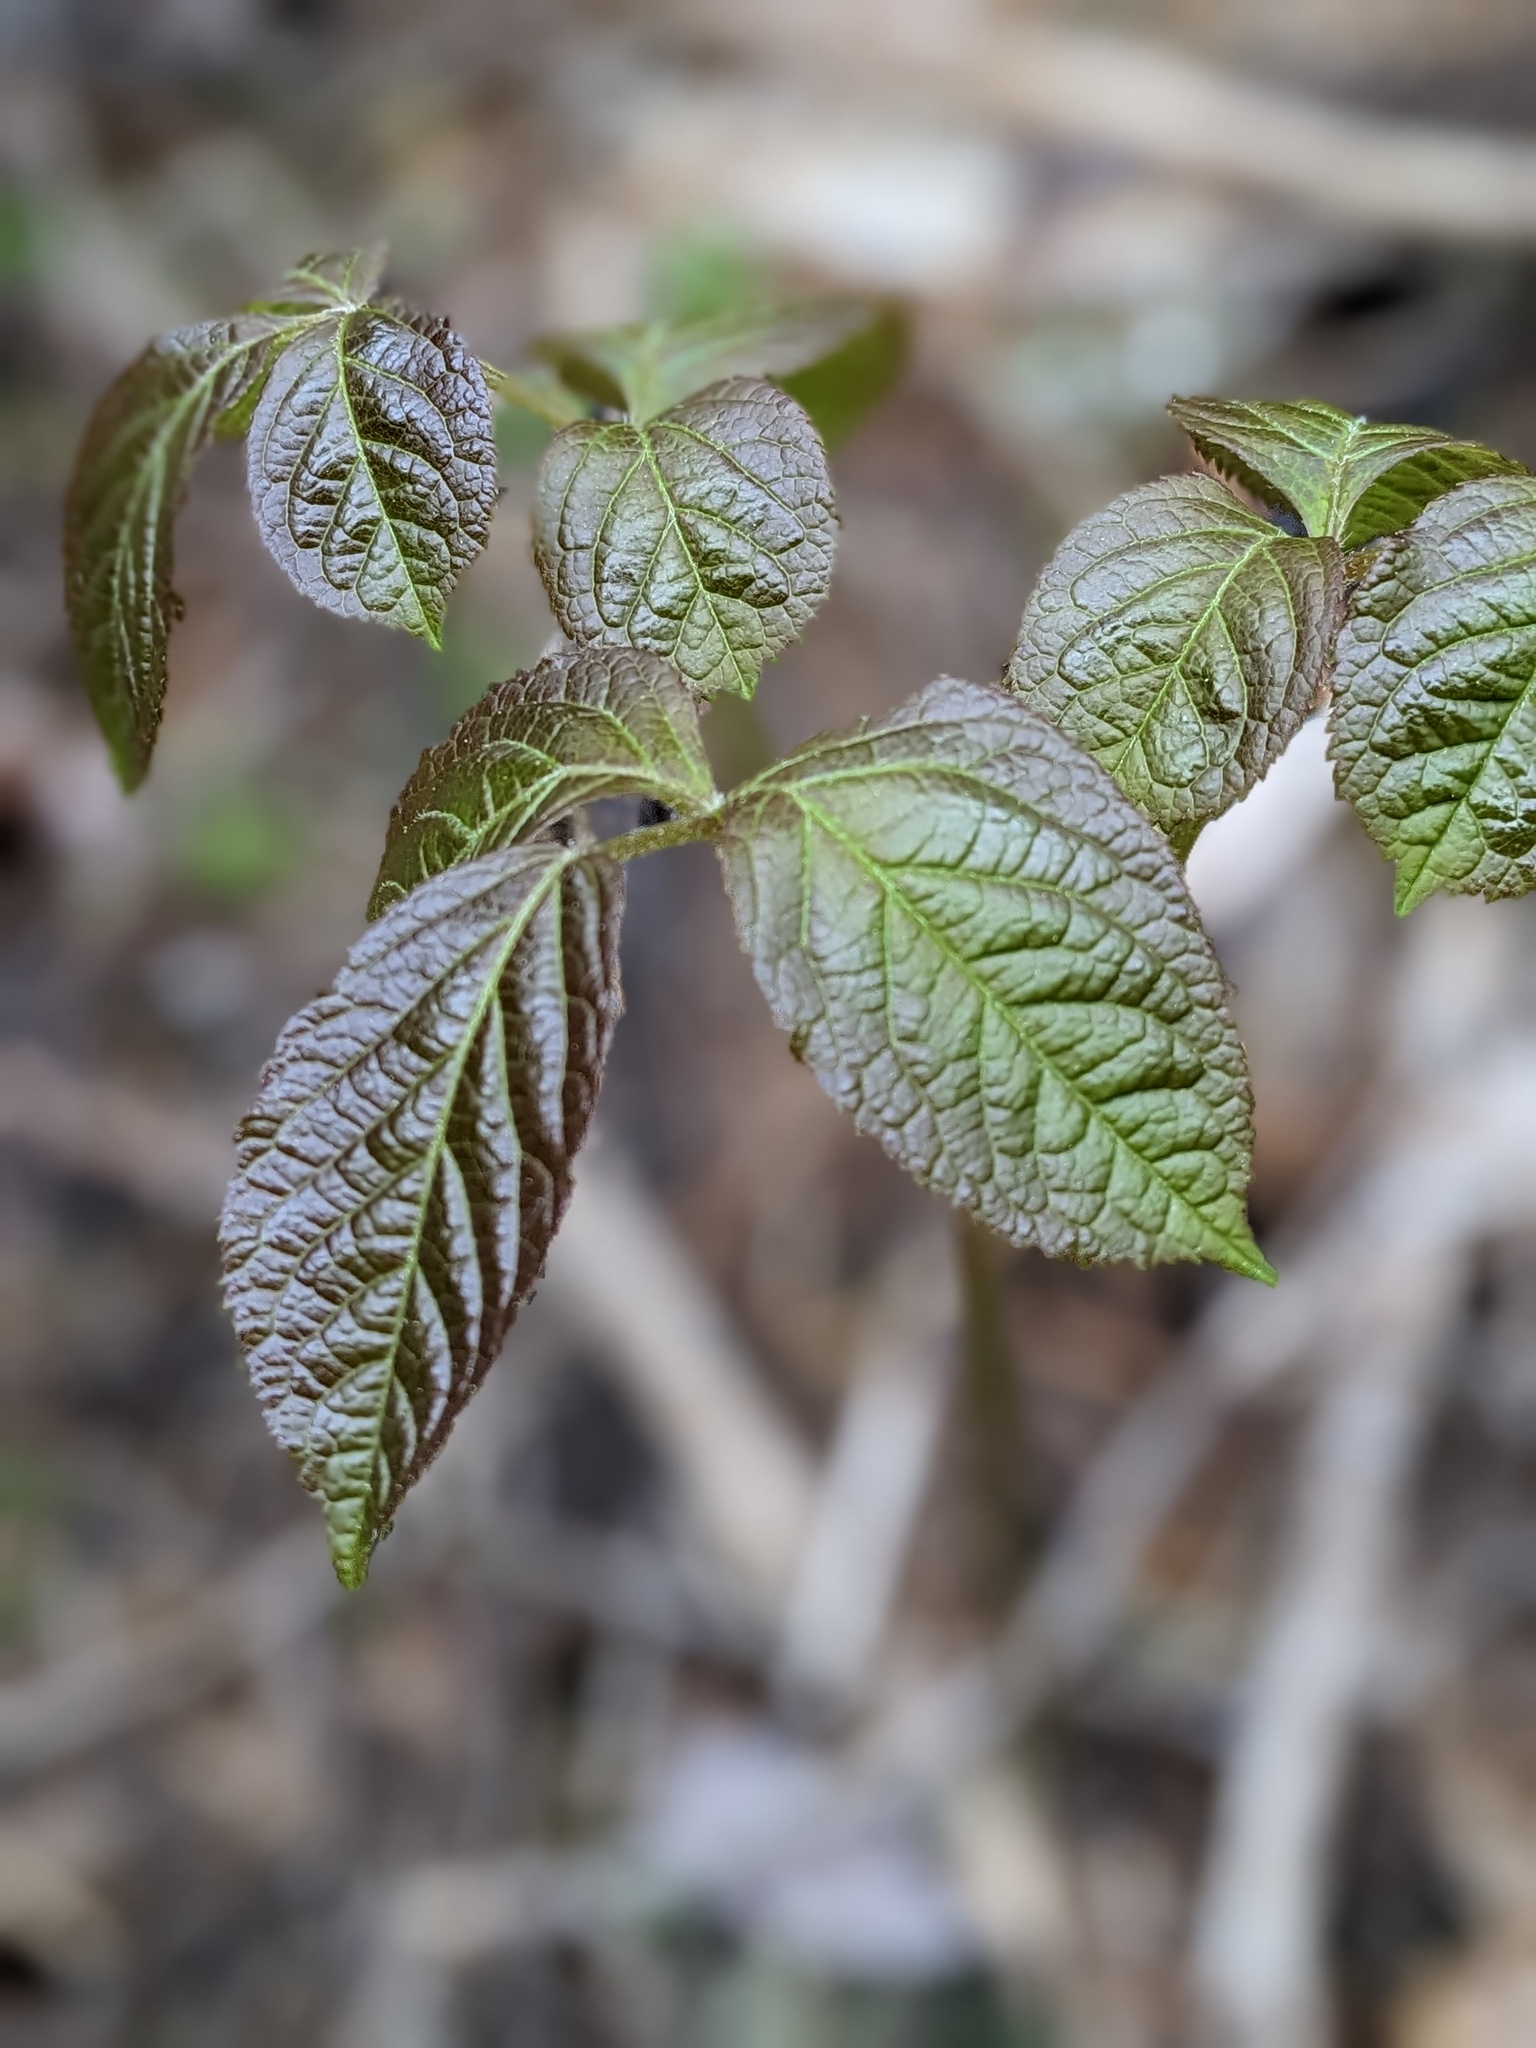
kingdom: Plantae
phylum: Tracheophyta
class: Magnoliopsida
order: Apiales
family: Araliaceae
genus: Aralia
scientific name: Aralia nudicaulis
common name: Wild sarsaparilla
